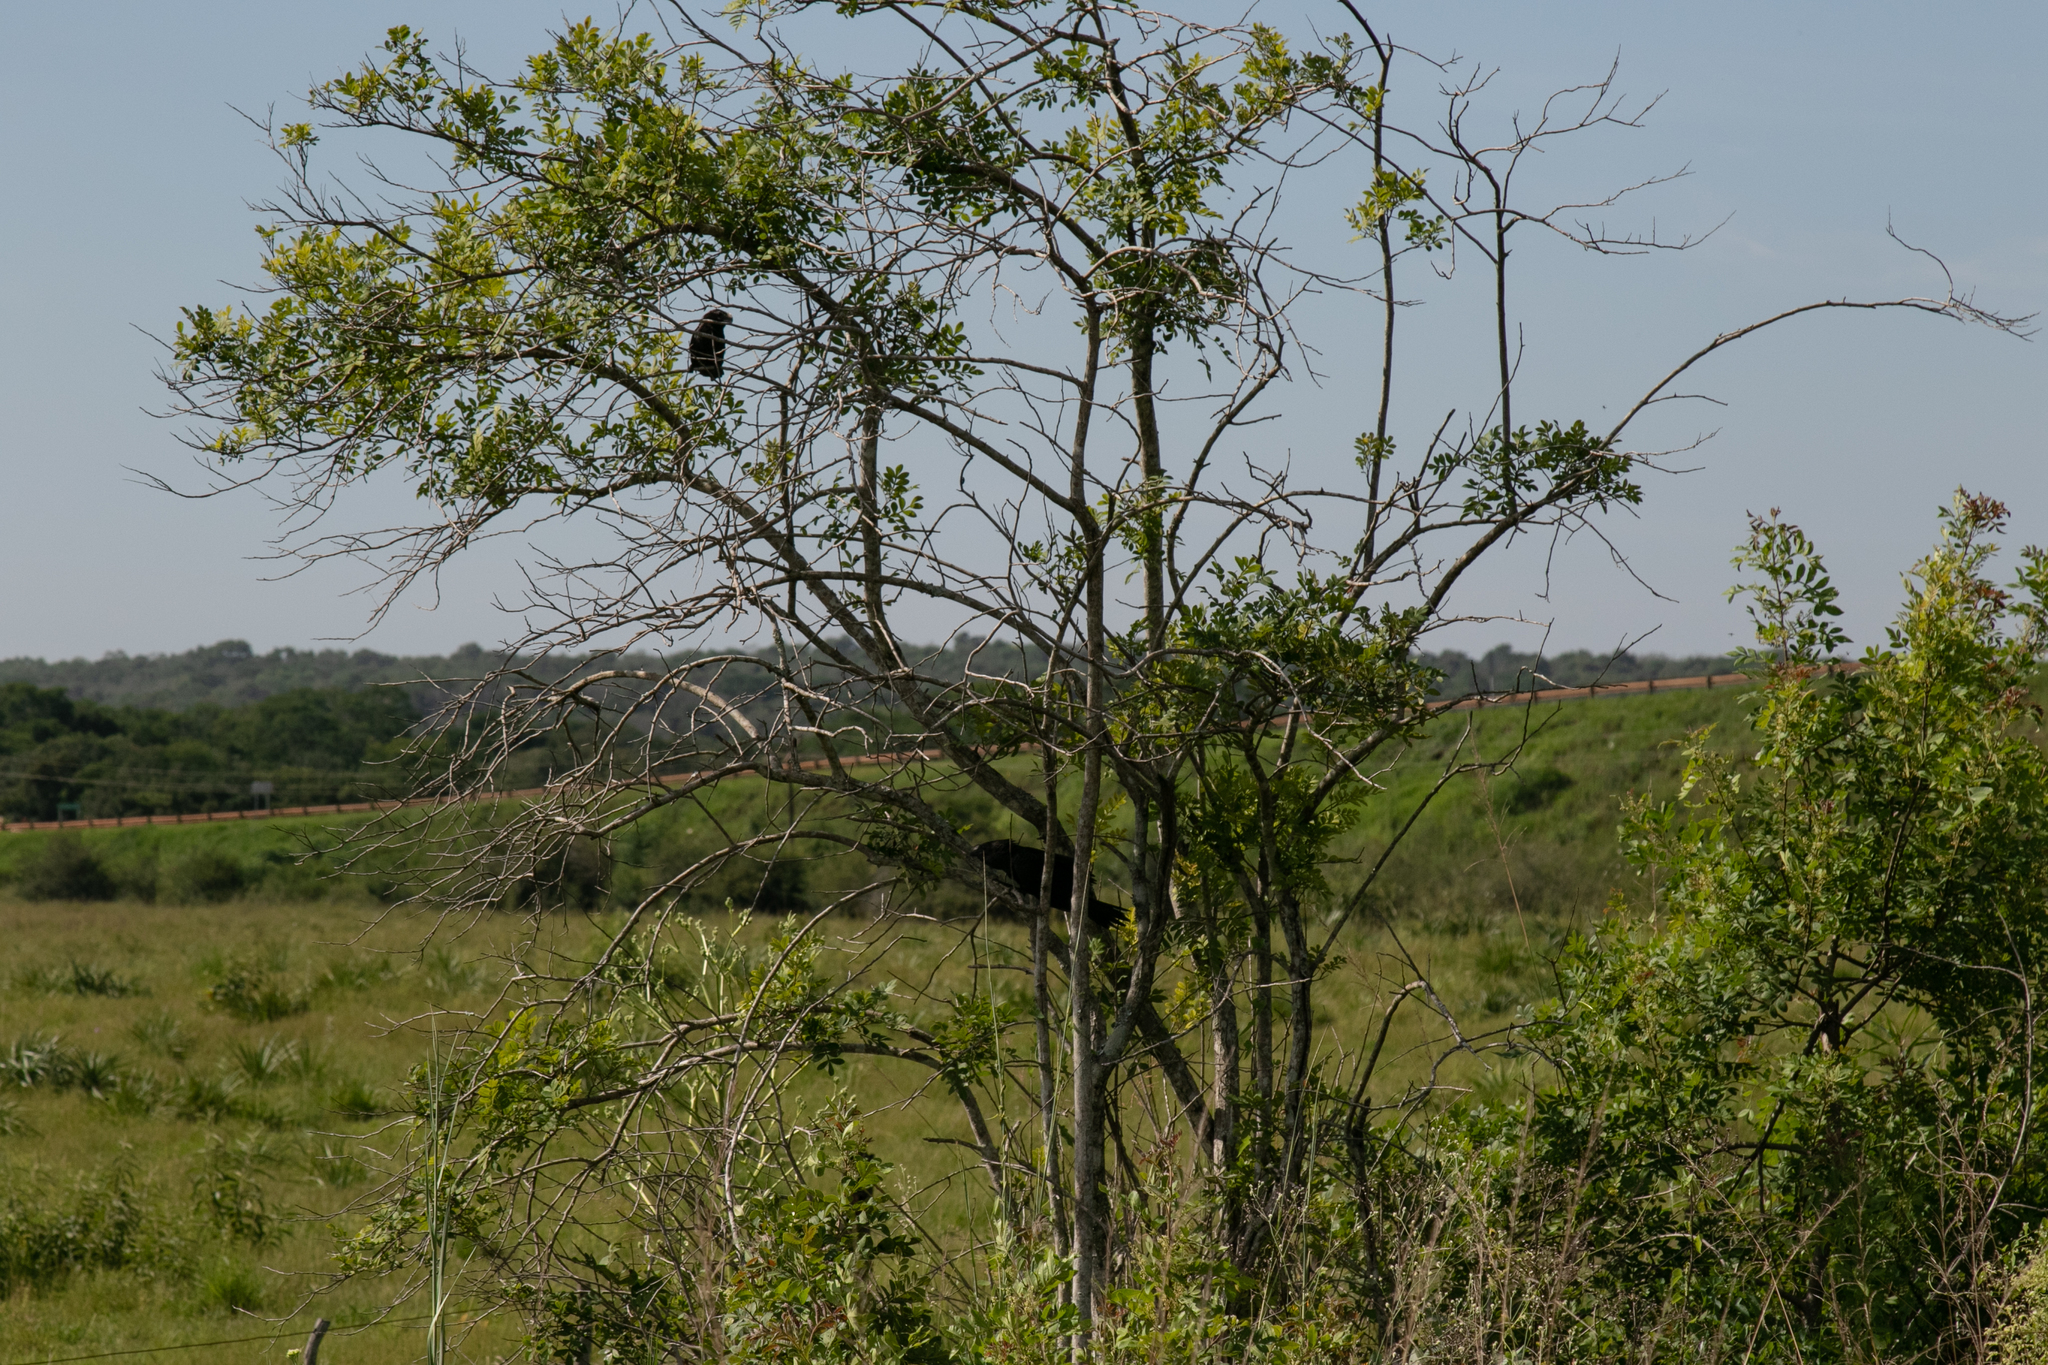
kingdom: Animalia
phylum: Chordata
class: Aves
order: Cuculiformes
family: Cuculidae
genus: Crotophaga
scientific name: Crotophaga ani
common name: Smooth-billed ani
